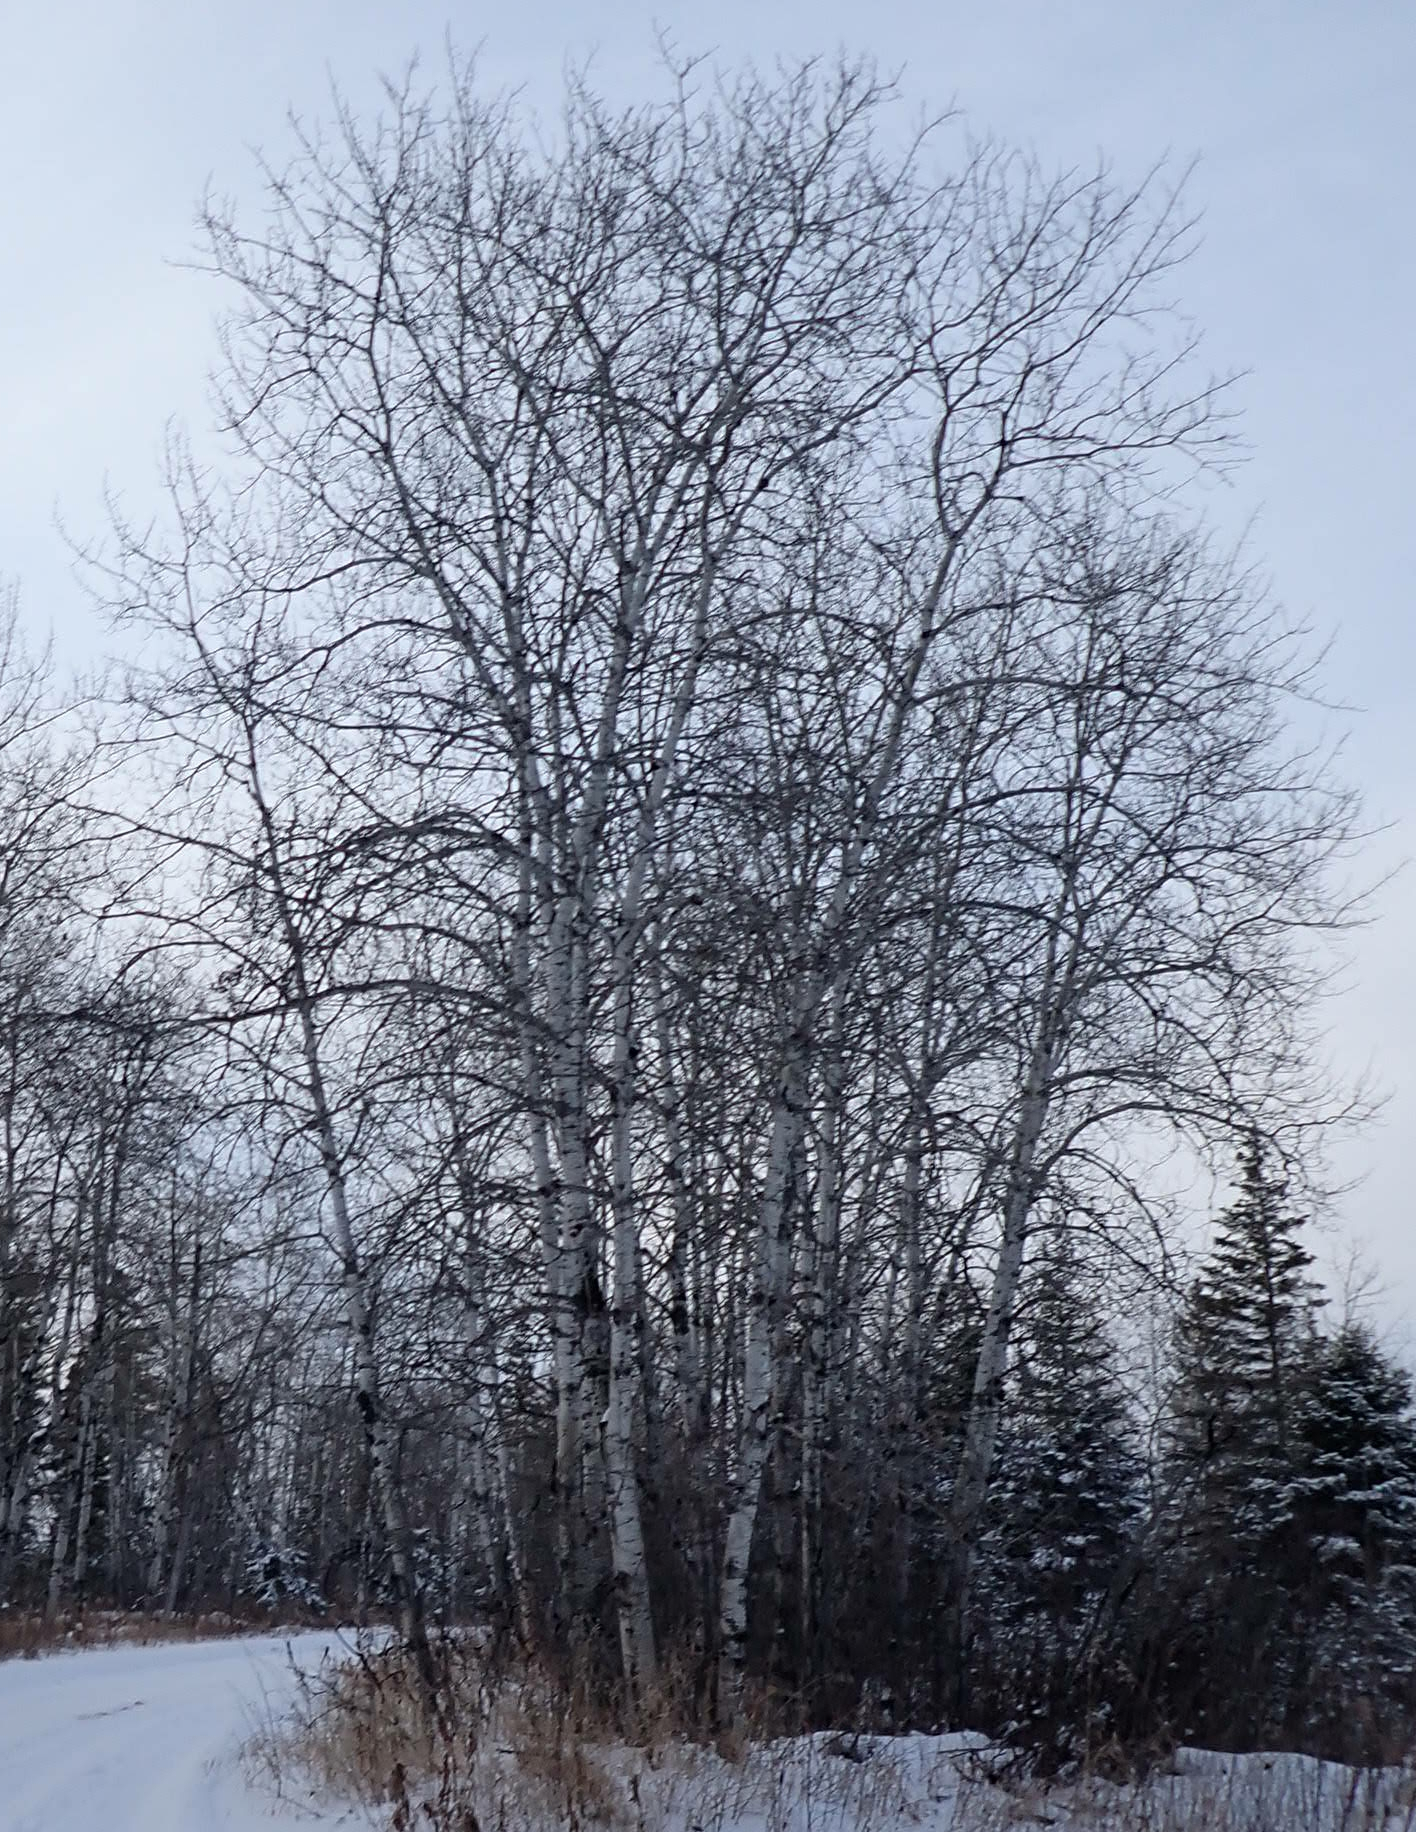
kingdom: Plantae
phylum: Tracheophyta
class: Magnoliopsida
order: Malpighiales
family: Salicaceae
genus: Populus
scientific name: Populus tremuloides
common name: Quaking aspen
